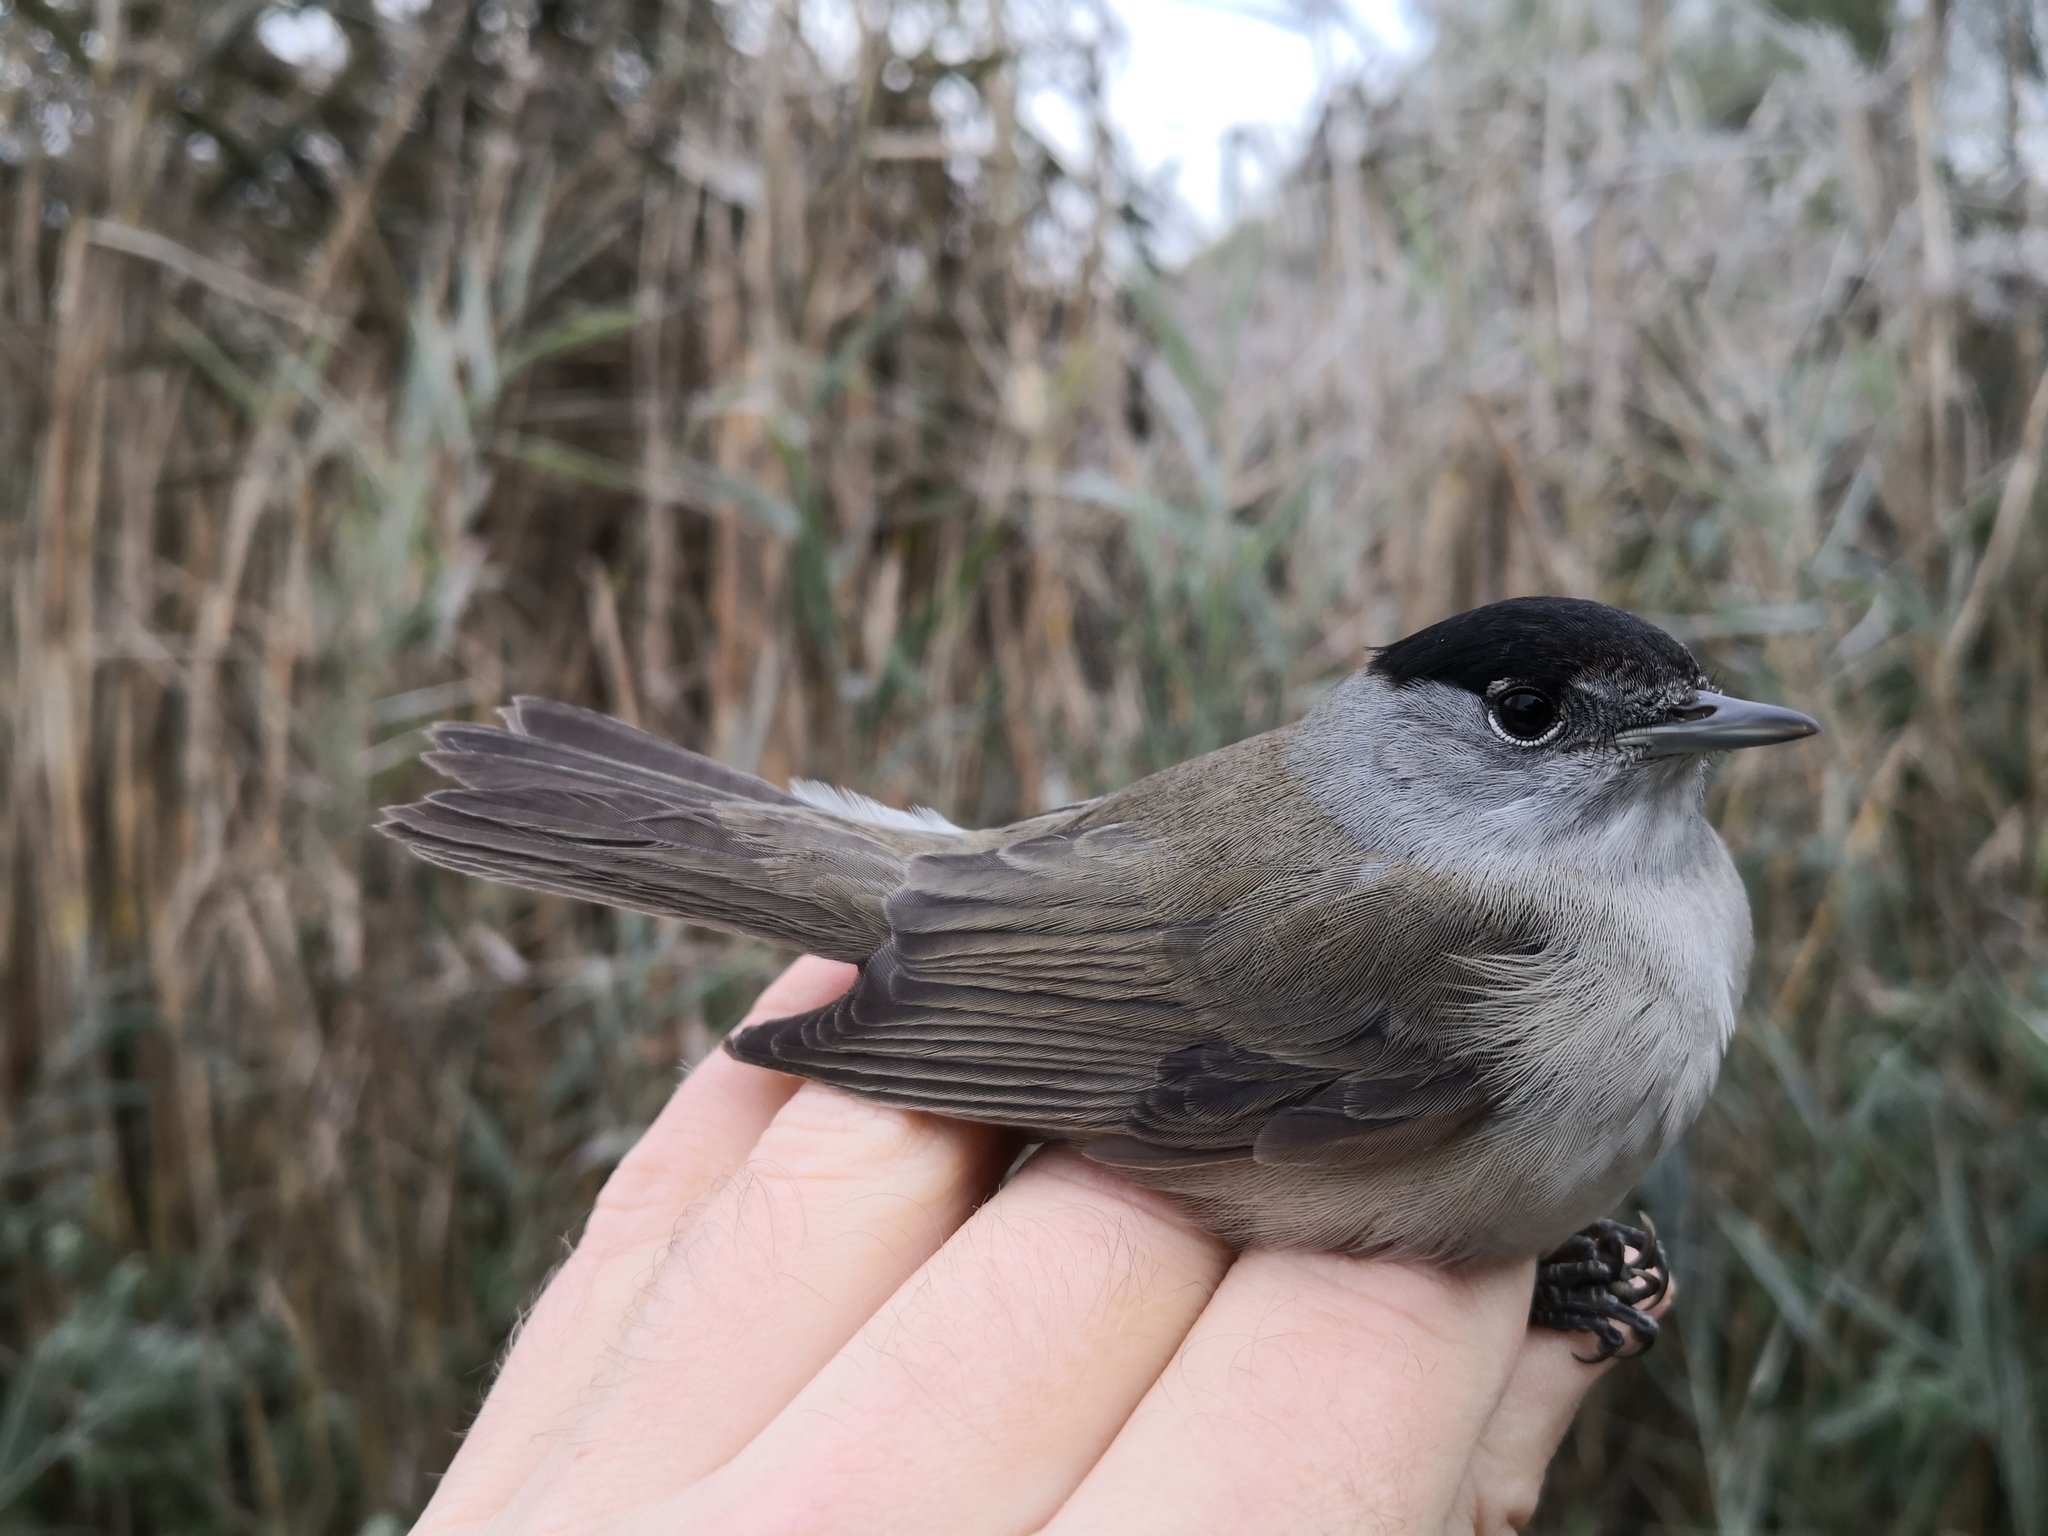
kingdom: Animalia
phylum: Chordata
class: Aves
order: Passeriformes
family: Sylviidae
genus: Sylvia
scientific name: Sylvia atricapilla
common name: Eurasian blackcap
